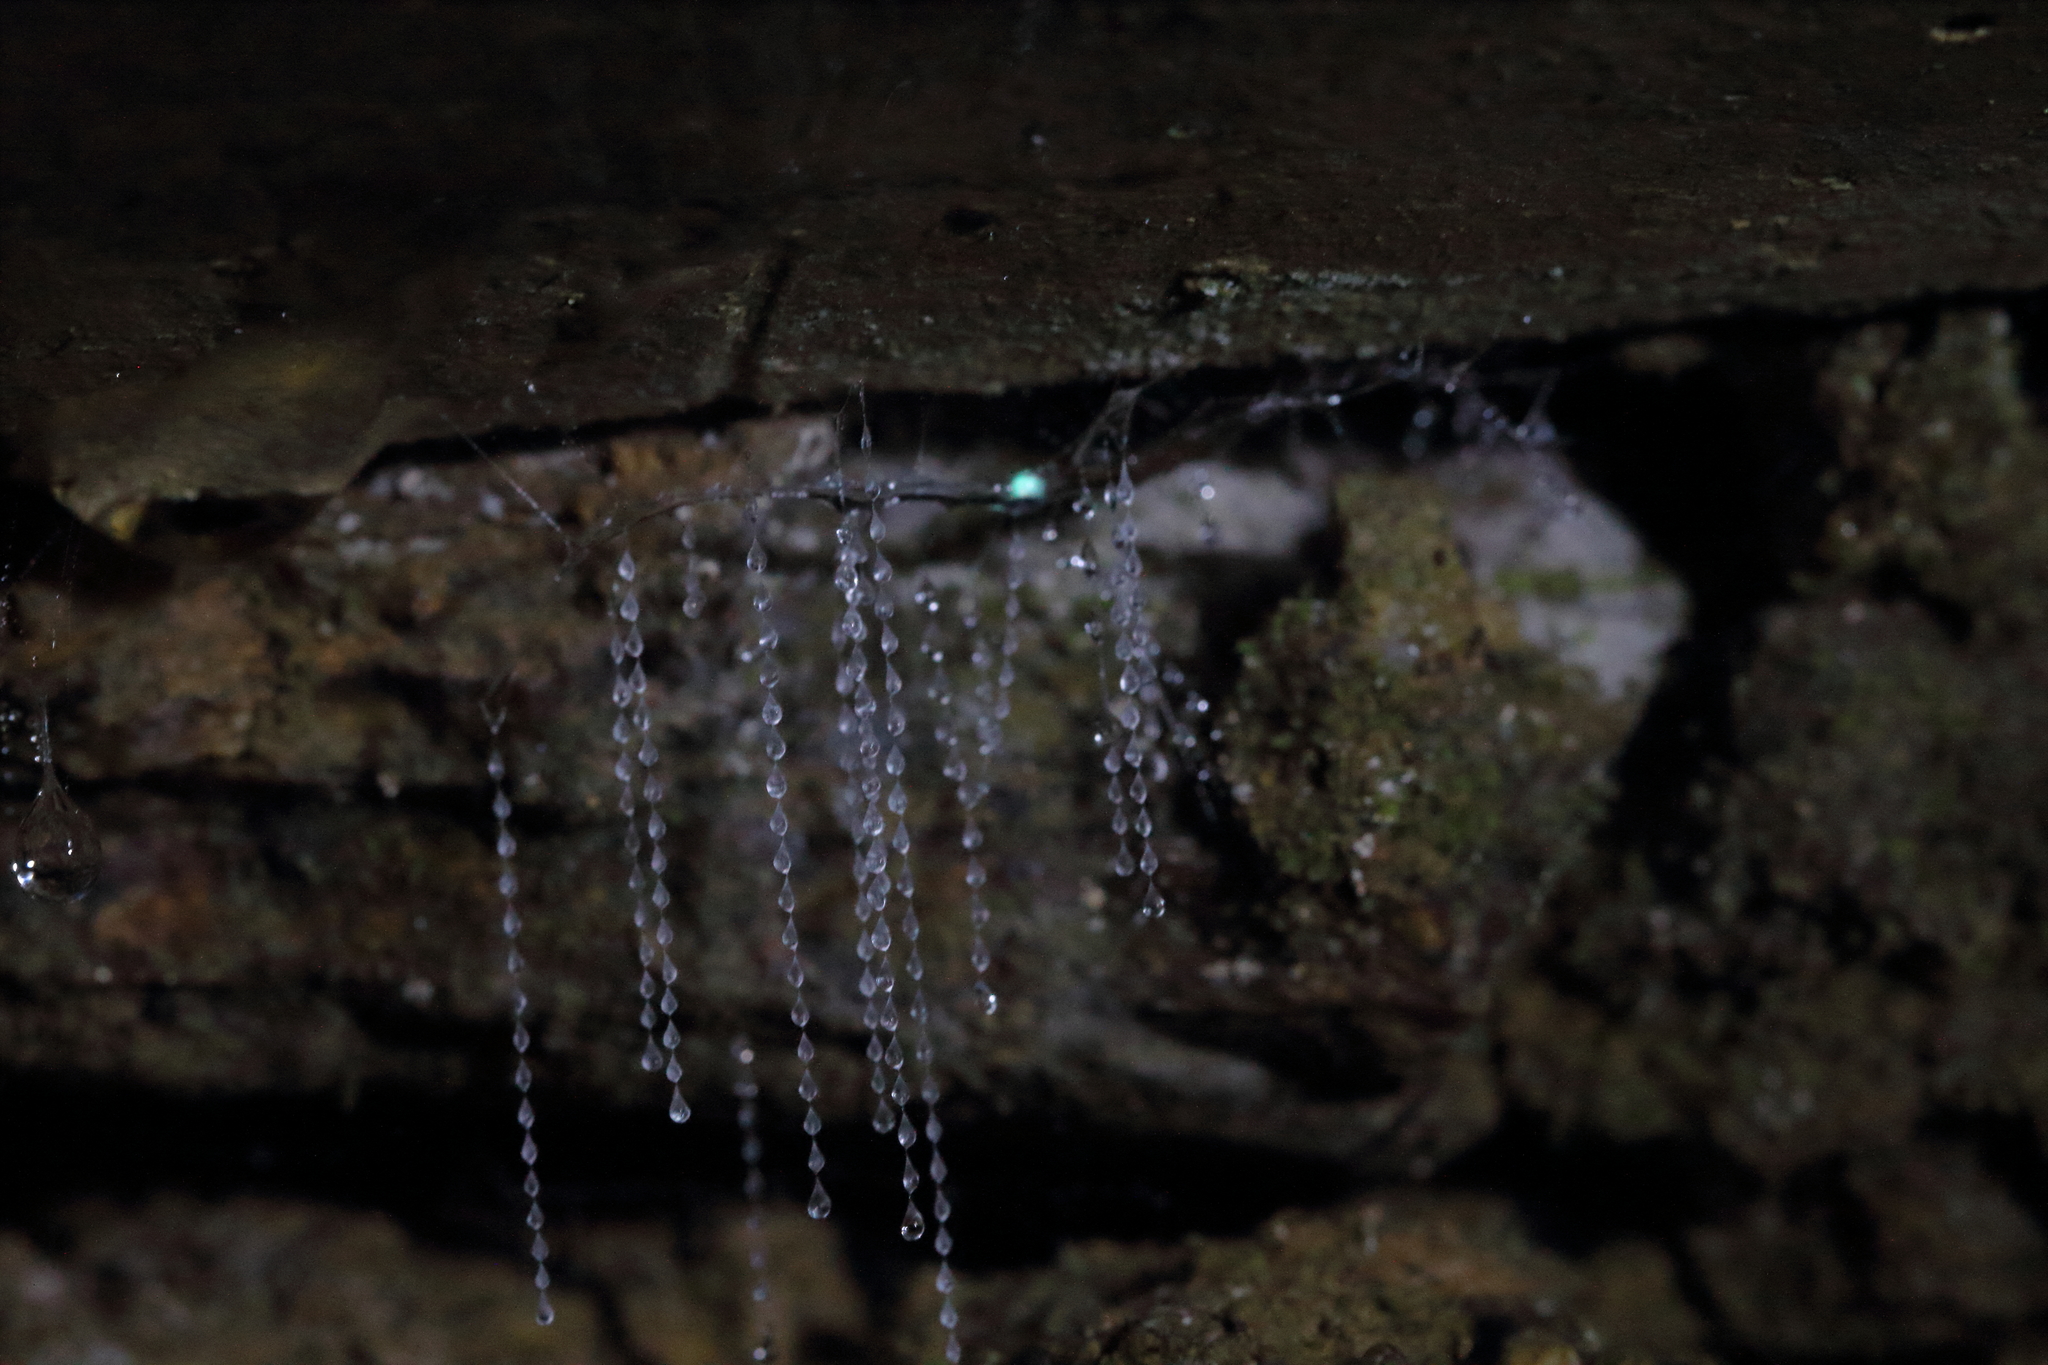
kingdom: Animalia
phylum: Arthropoda
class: Insecta
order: Diptera
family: Keroplatidae
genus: Arachnocampa
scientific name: Arachnocampa luminosa
